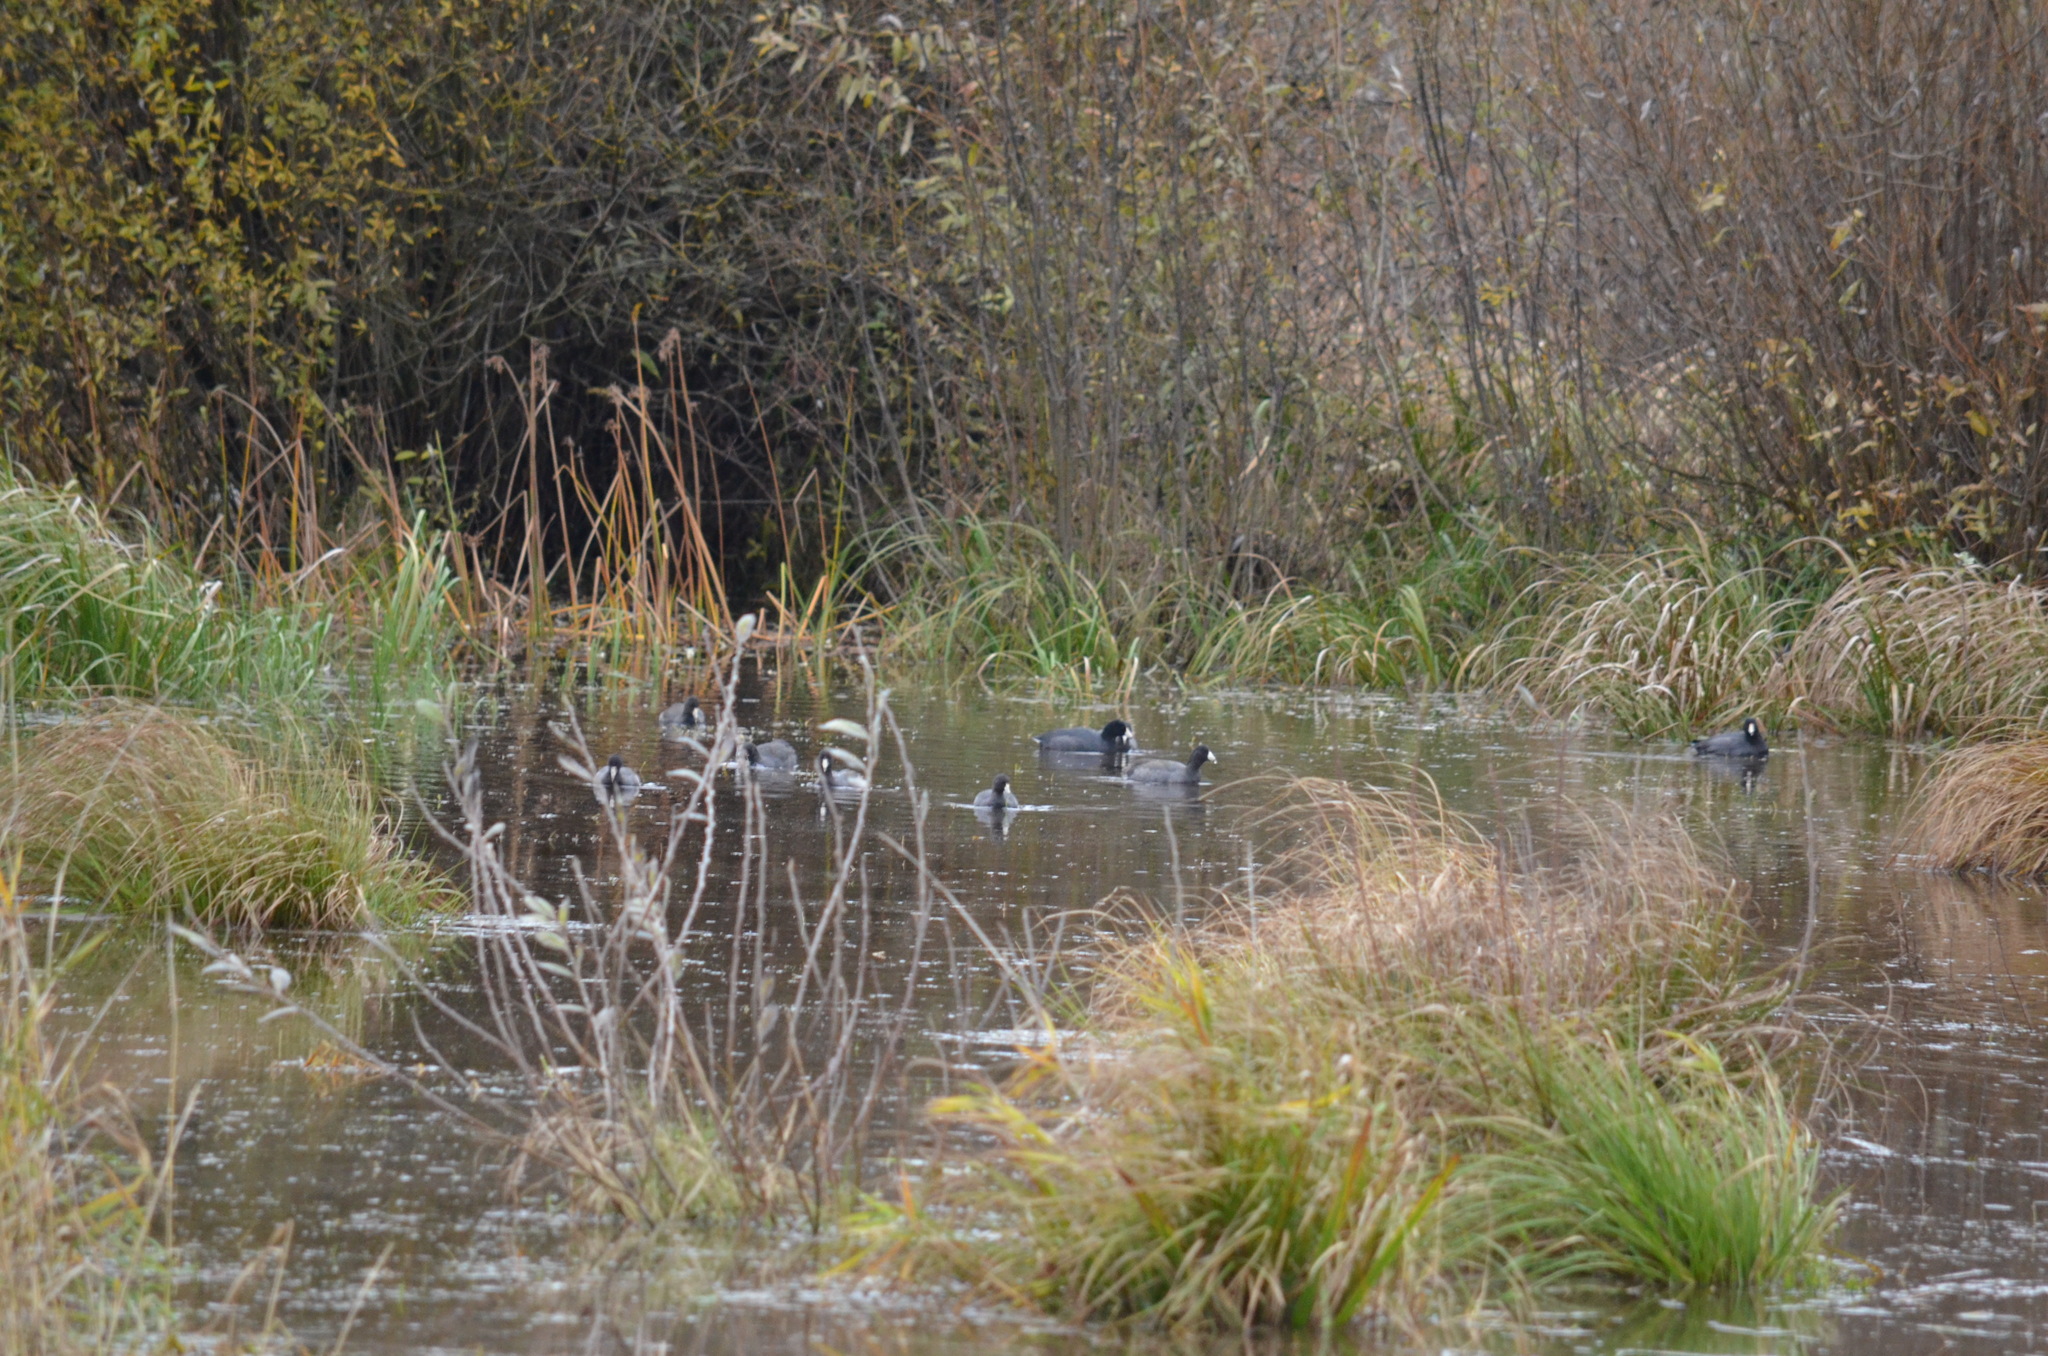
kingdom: Animalia
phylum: Chordata
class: Aves
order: Gruiformes
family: Rallidae
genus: Fulica
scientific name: Fulica americana
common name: American coot
